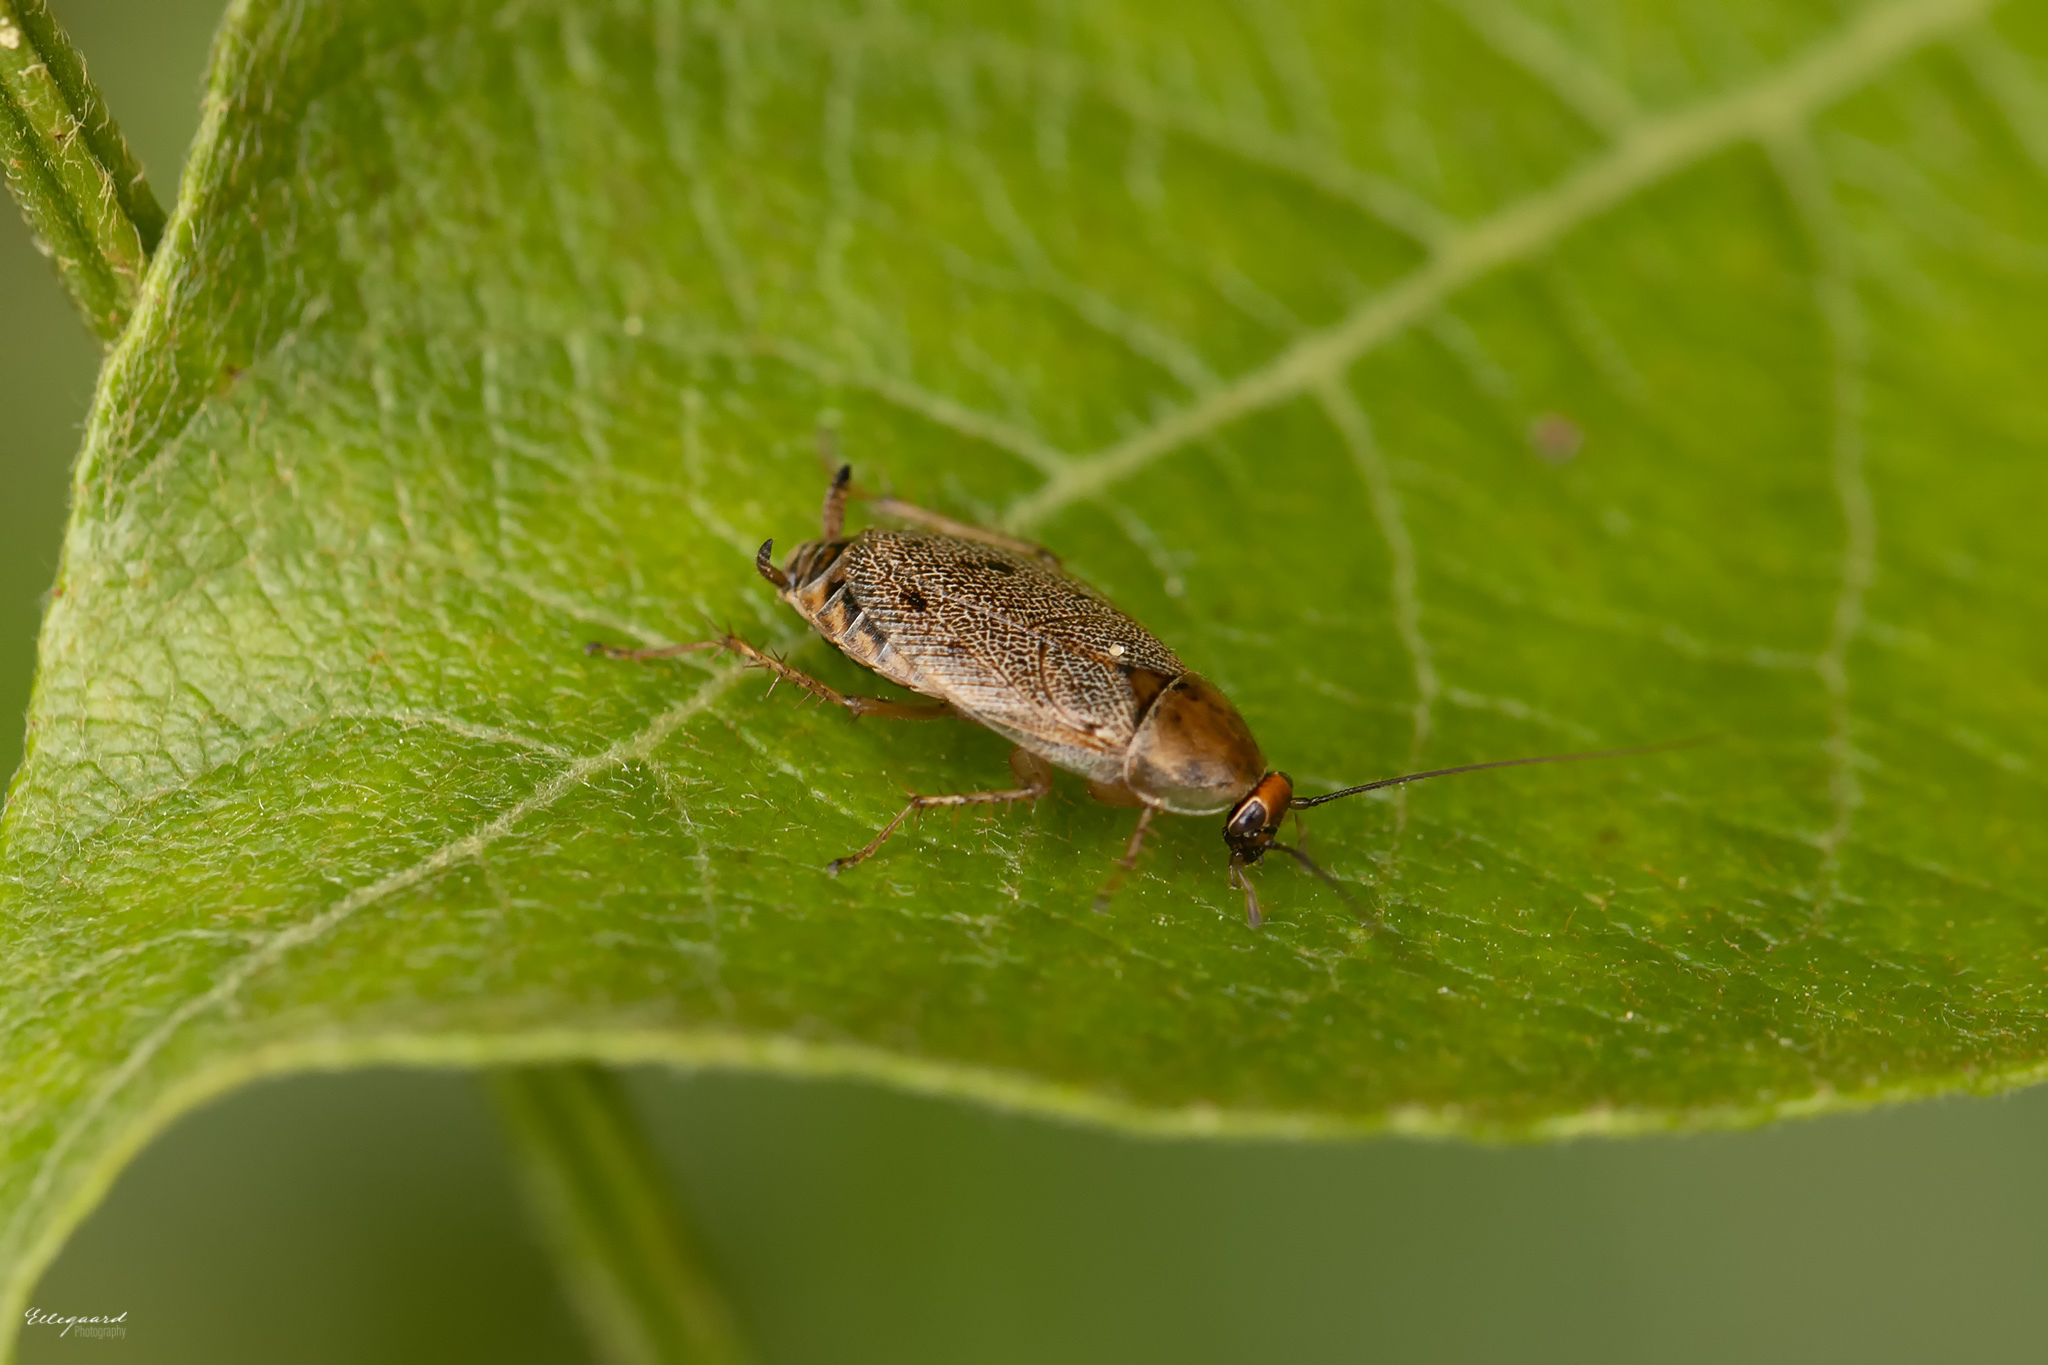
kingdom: Animalia
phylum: Arthropoda
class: Insecta
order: Blattodea
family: Ectobiidae
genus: Ectobius
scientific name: Ectobius lapponicus
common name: Dusky cockroach
